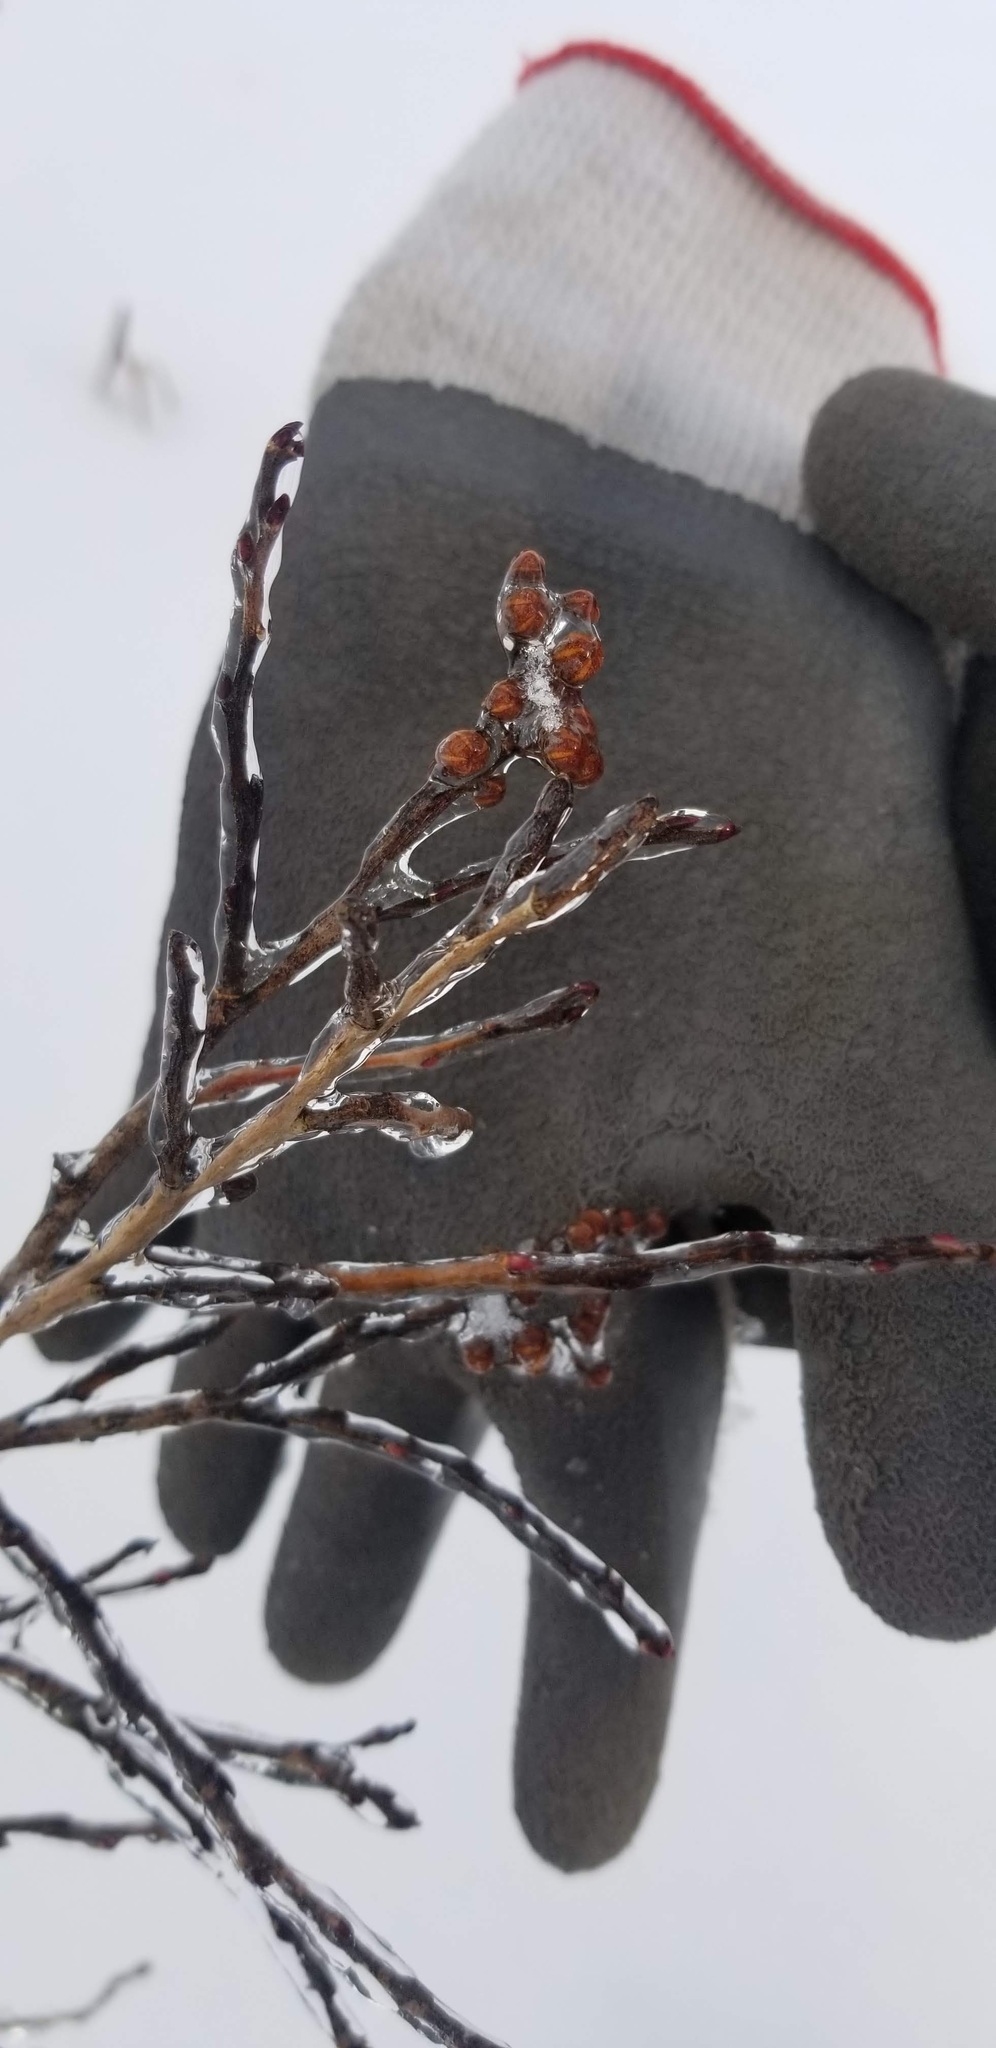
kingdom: Plantae
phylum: Tracheophyta
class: Magnoliopsida
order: Ericales
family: Ericaceae
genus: Lyonia
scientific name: Lyonia ligustrina
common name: Maleberry
